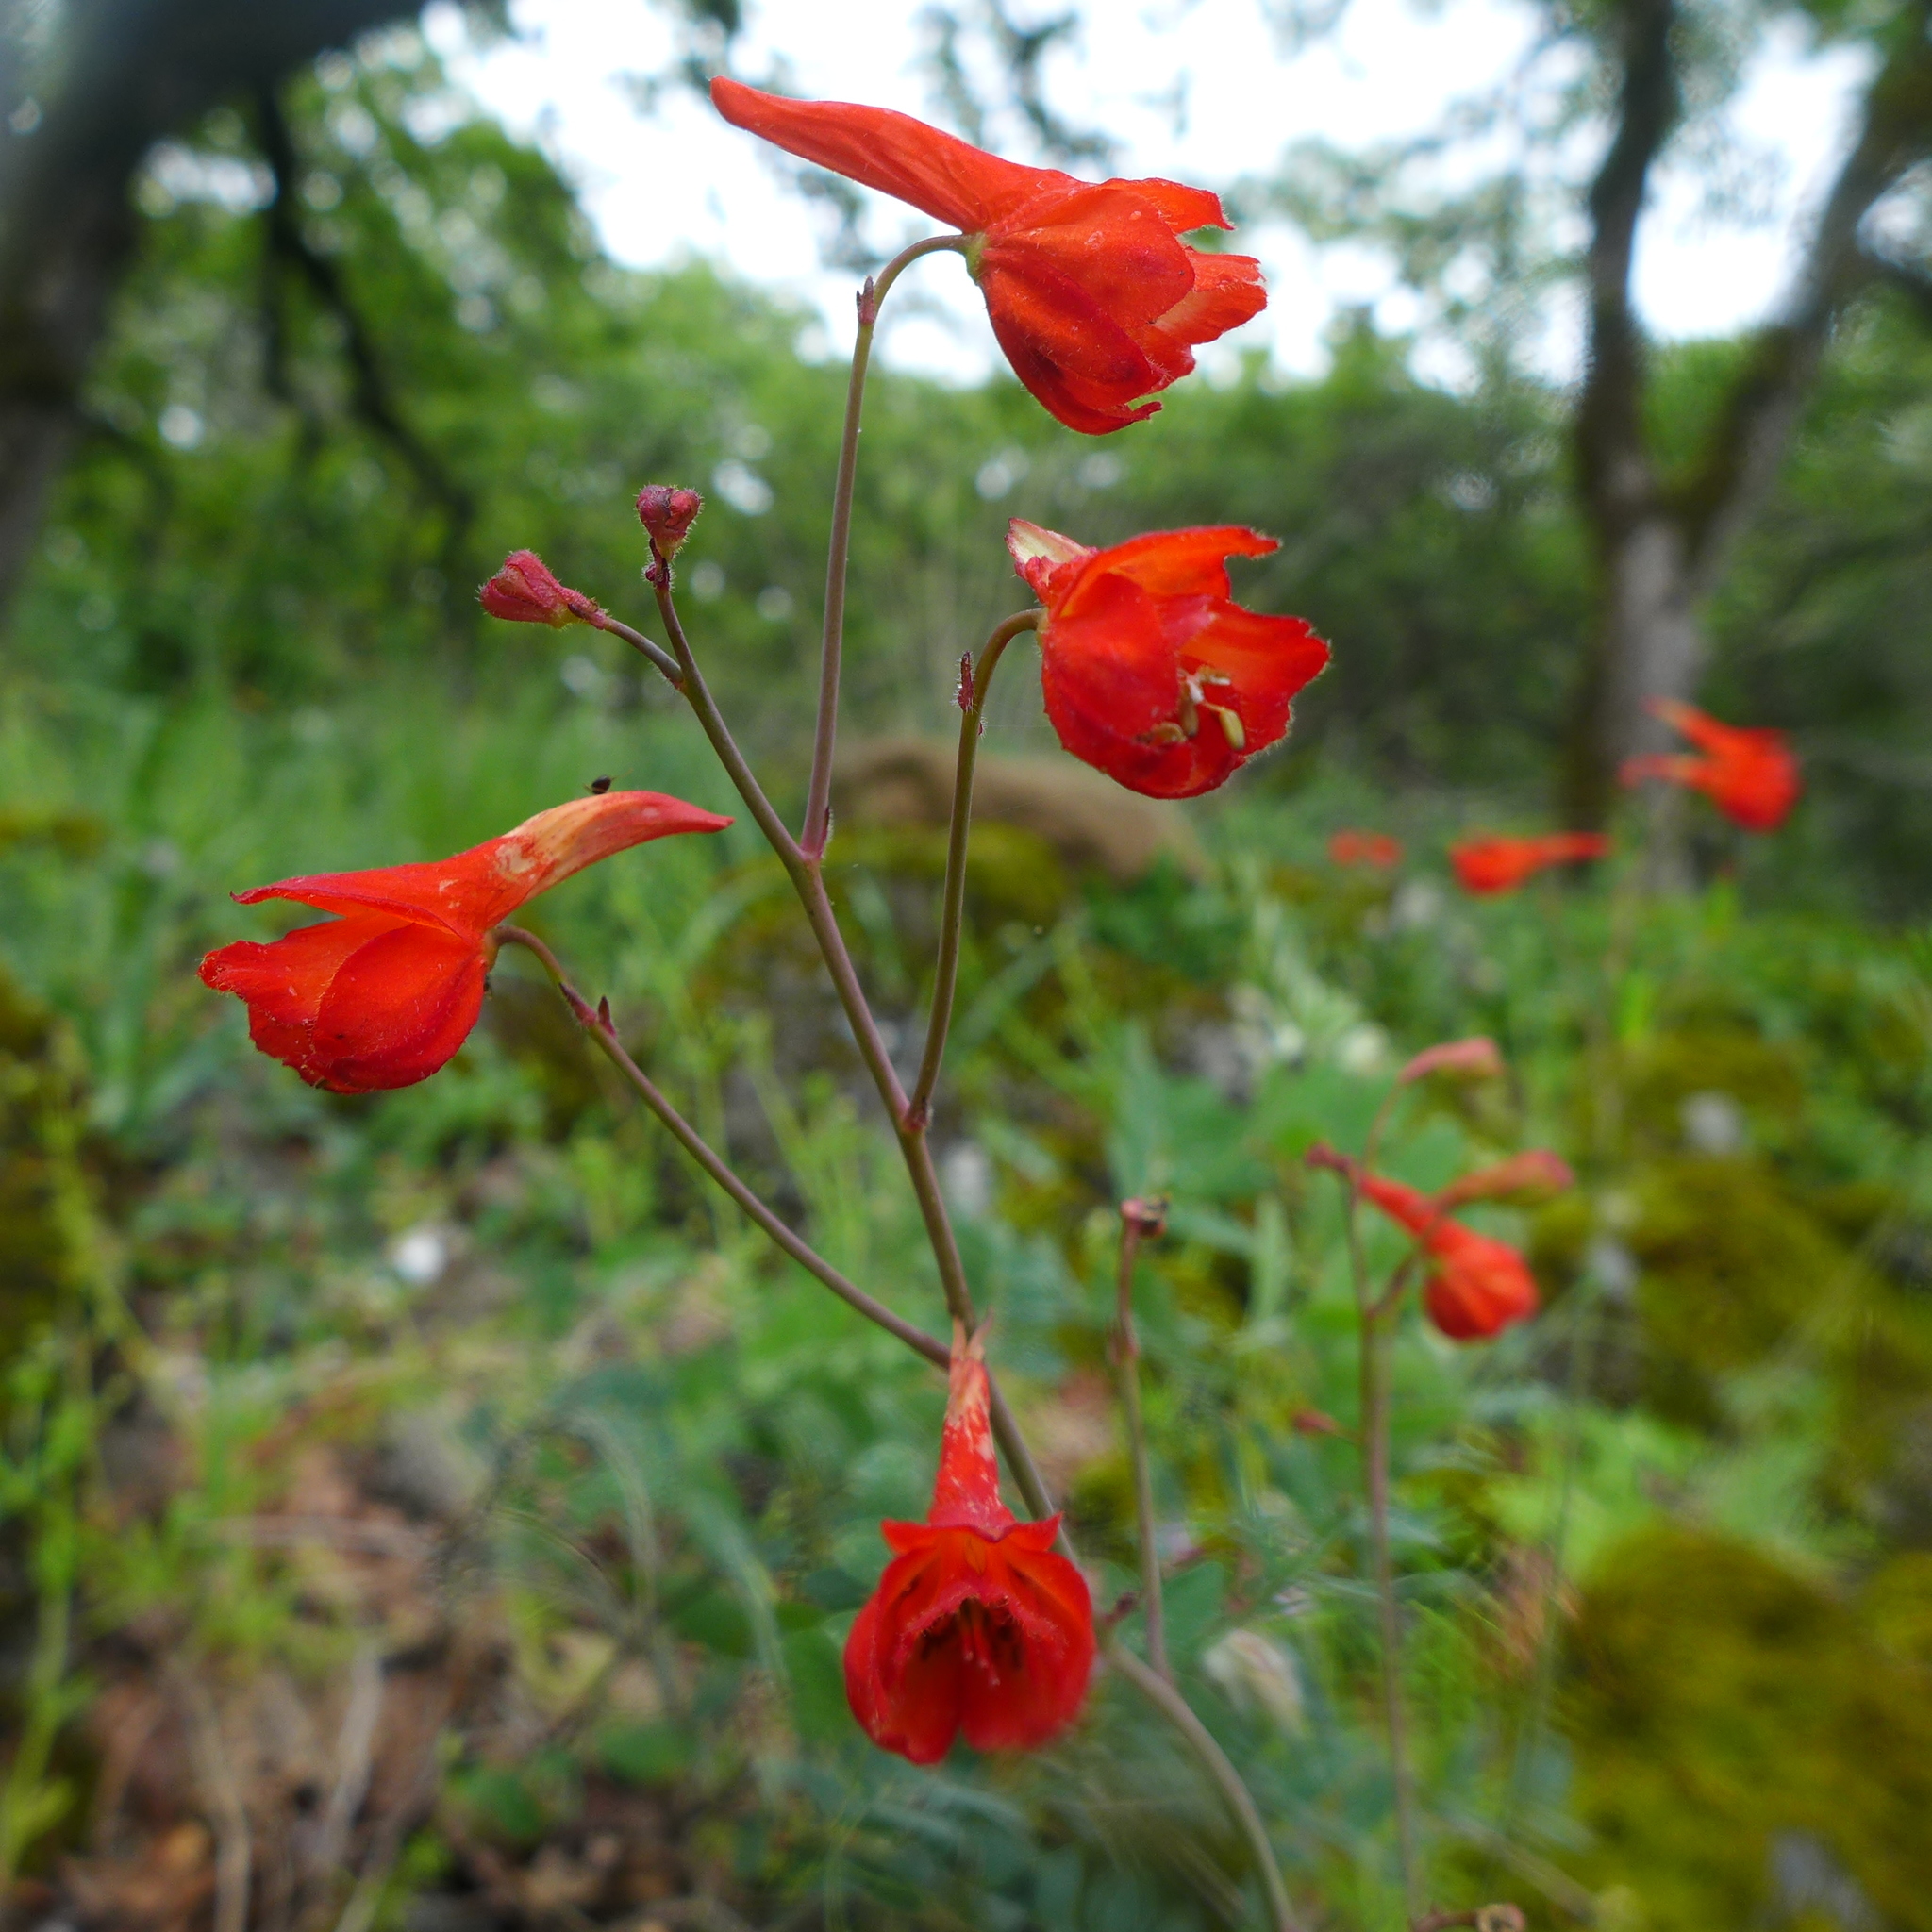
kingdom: Plantae
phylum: Tracheophyta
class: Magnoliopsida
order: Ranunculales
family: Ranunculaceae
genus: Delphinium
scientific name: Delphinium nudicaule
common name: Red larkspur
